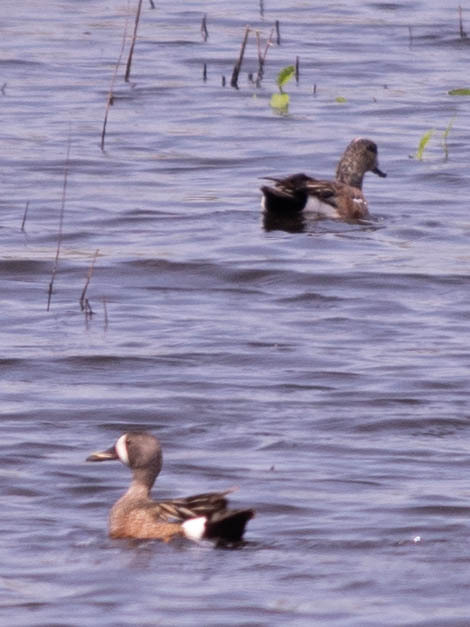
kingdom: Animalia
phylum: Chordata
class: Aves
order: Anseriformes
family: Anatidae
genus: Spatula
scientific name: Spatula discors
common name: Blue-winged teal
